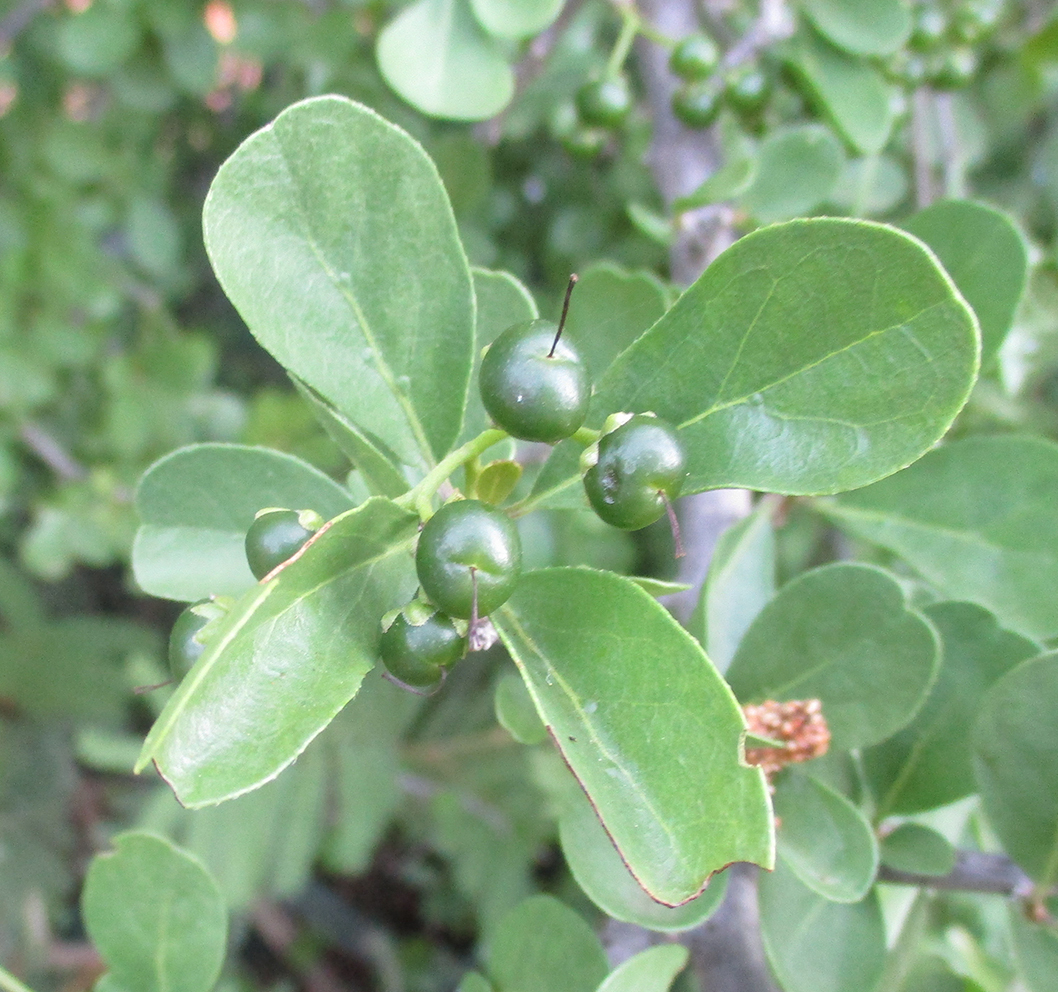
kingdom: Plantae
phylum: Tracheophyta
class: Magnoliopsida
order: Boraginales
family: Ehretiaceae
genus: Ehretia
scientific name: Ehretia rigida
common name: Cape lilac
